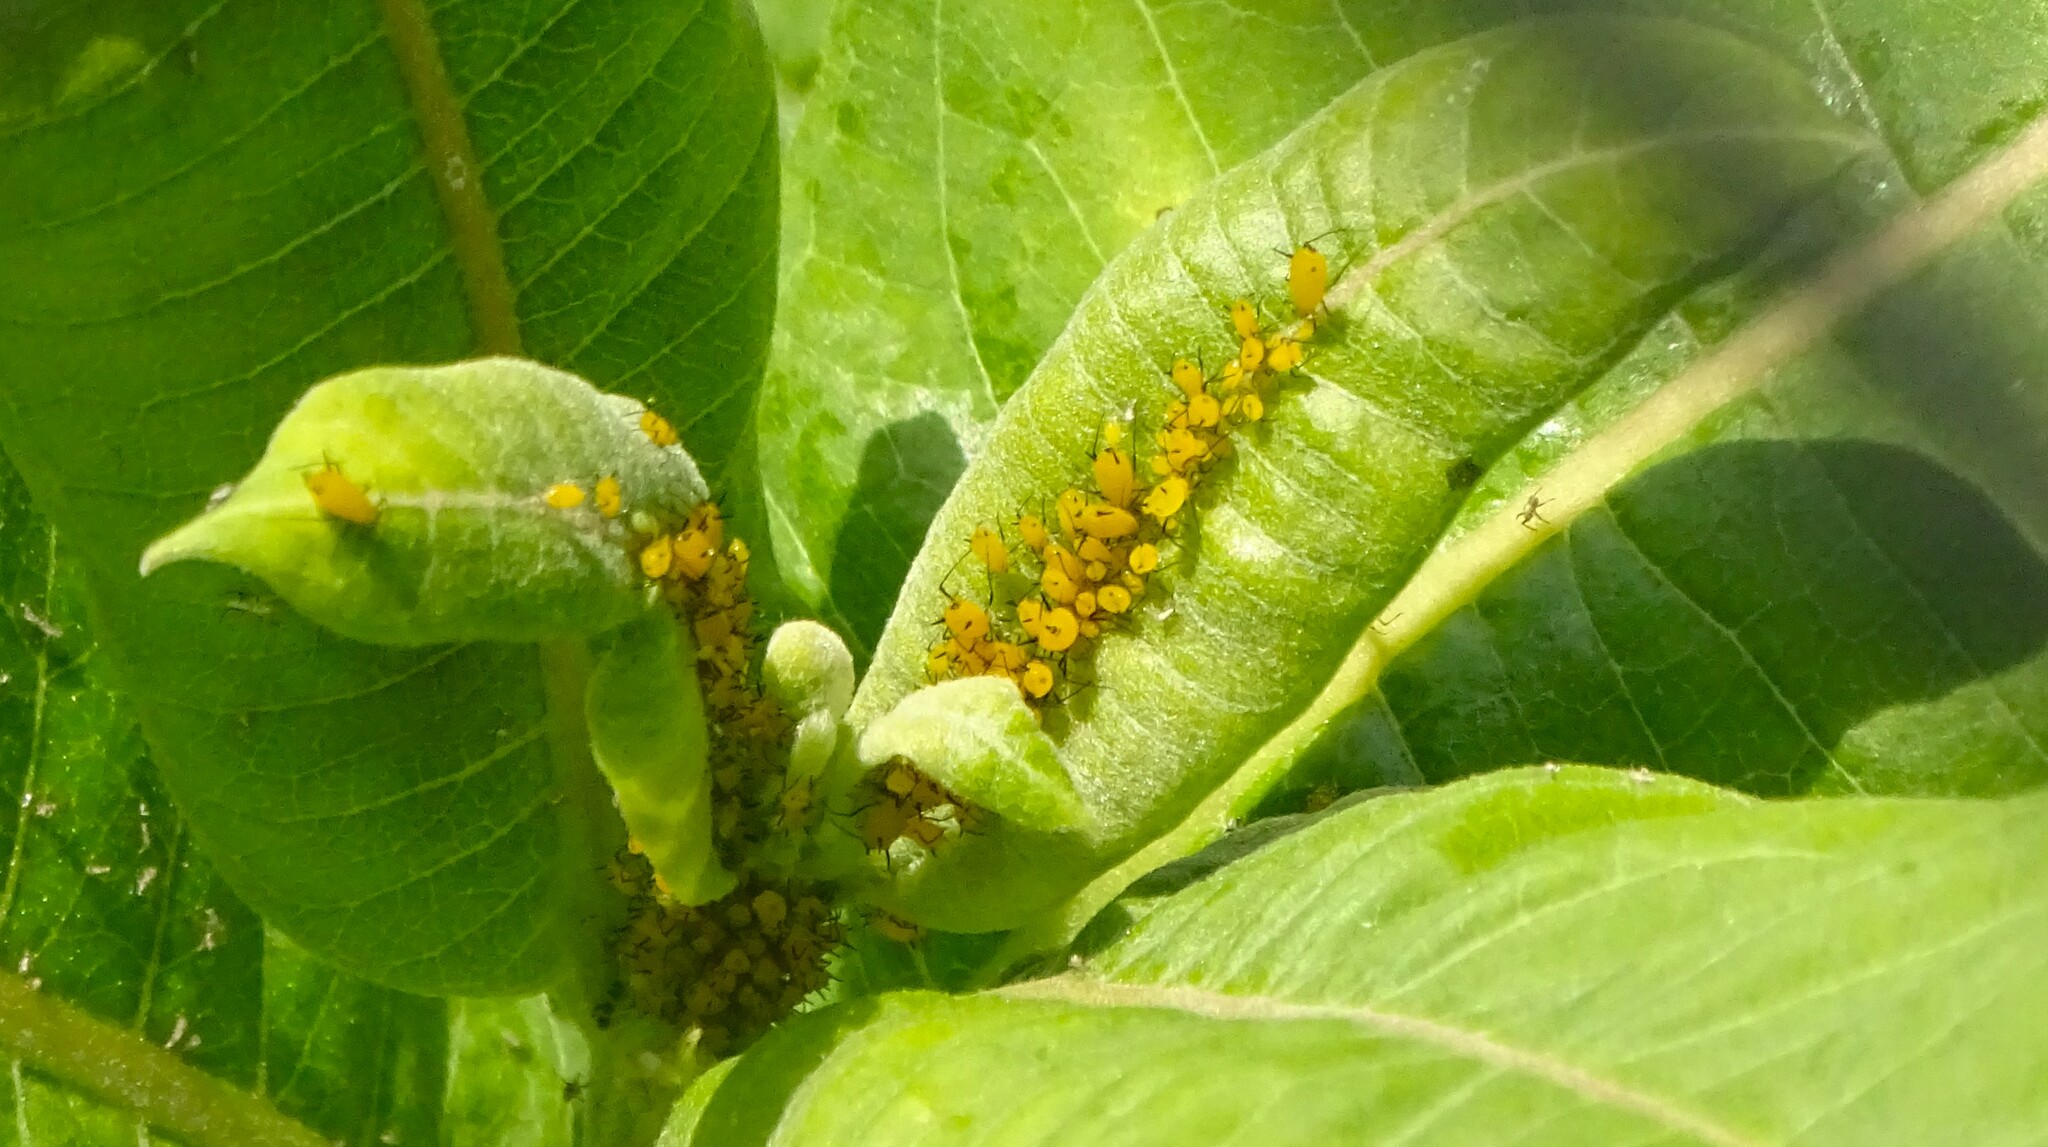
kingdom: Animalia
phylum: Arthropoda
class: Insecta
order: Hemiptera
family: Aphididae
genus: Aphis
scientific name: Aphis nerii
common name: Oleander aphid
